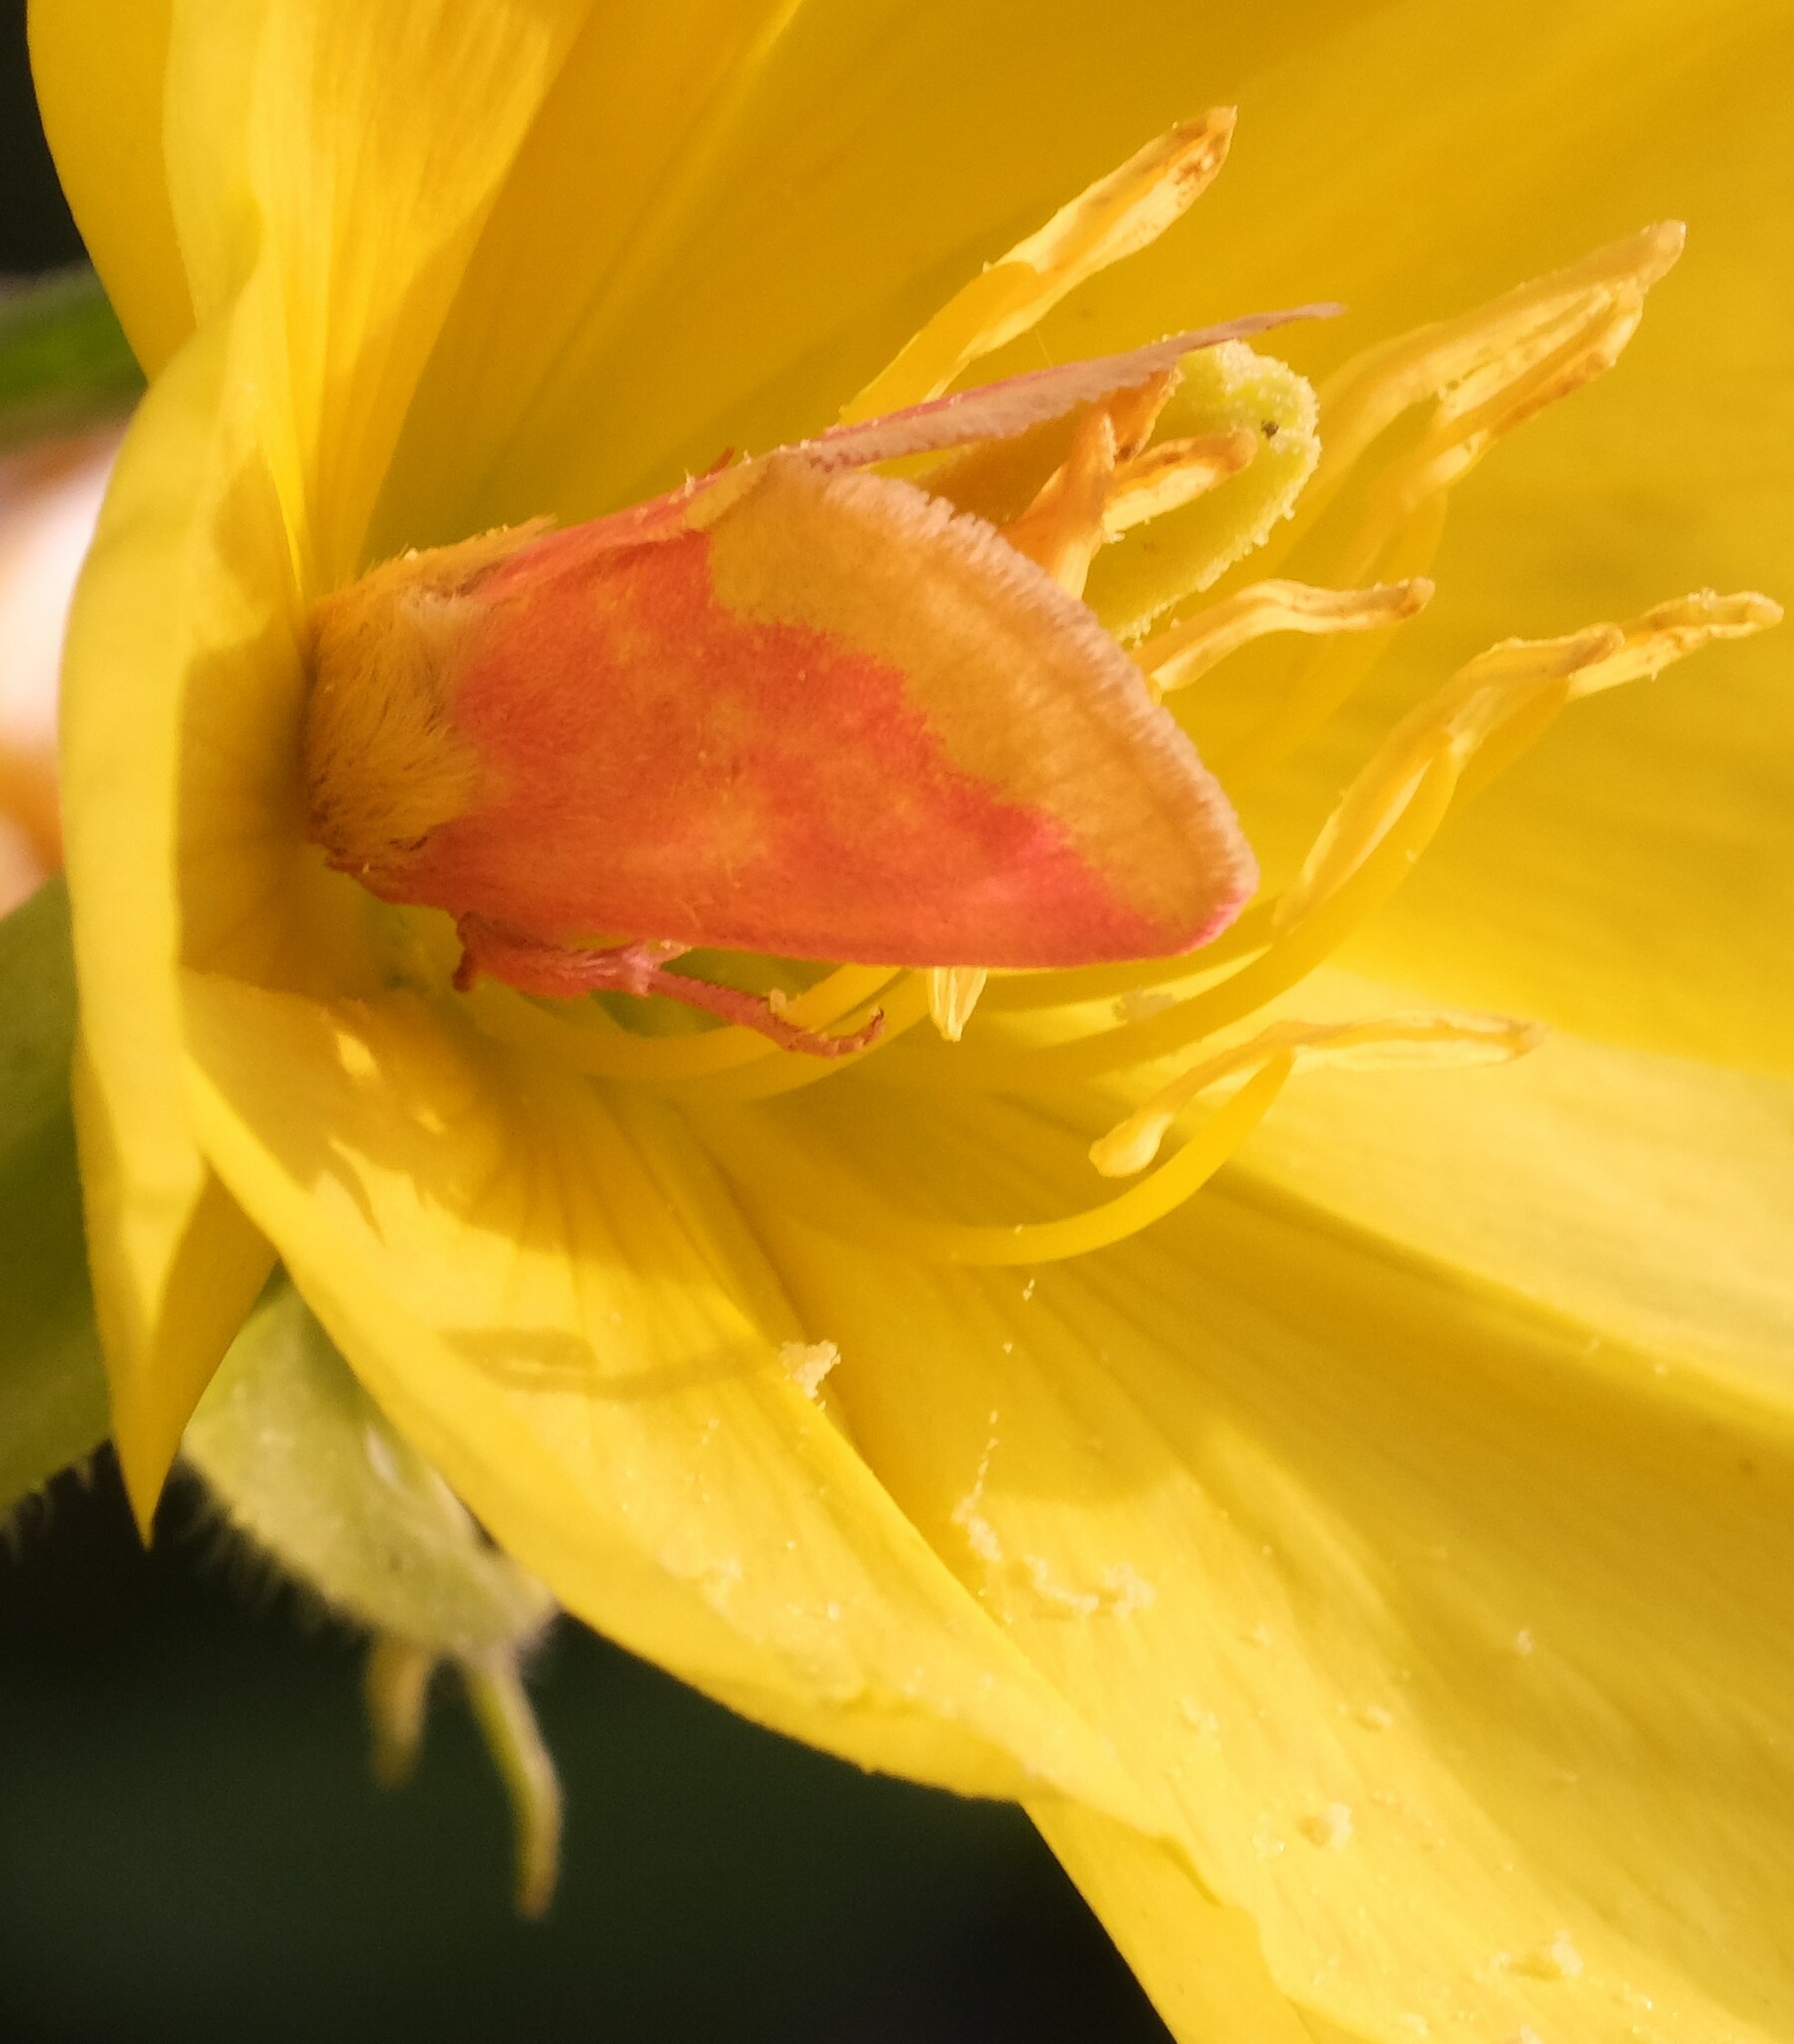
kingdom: Animalia
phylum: Arthropoda
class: Insecta
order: Lepidoptera
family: Noctuidae
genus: Schinia
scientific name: Schinia florida
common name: Primrose moth
